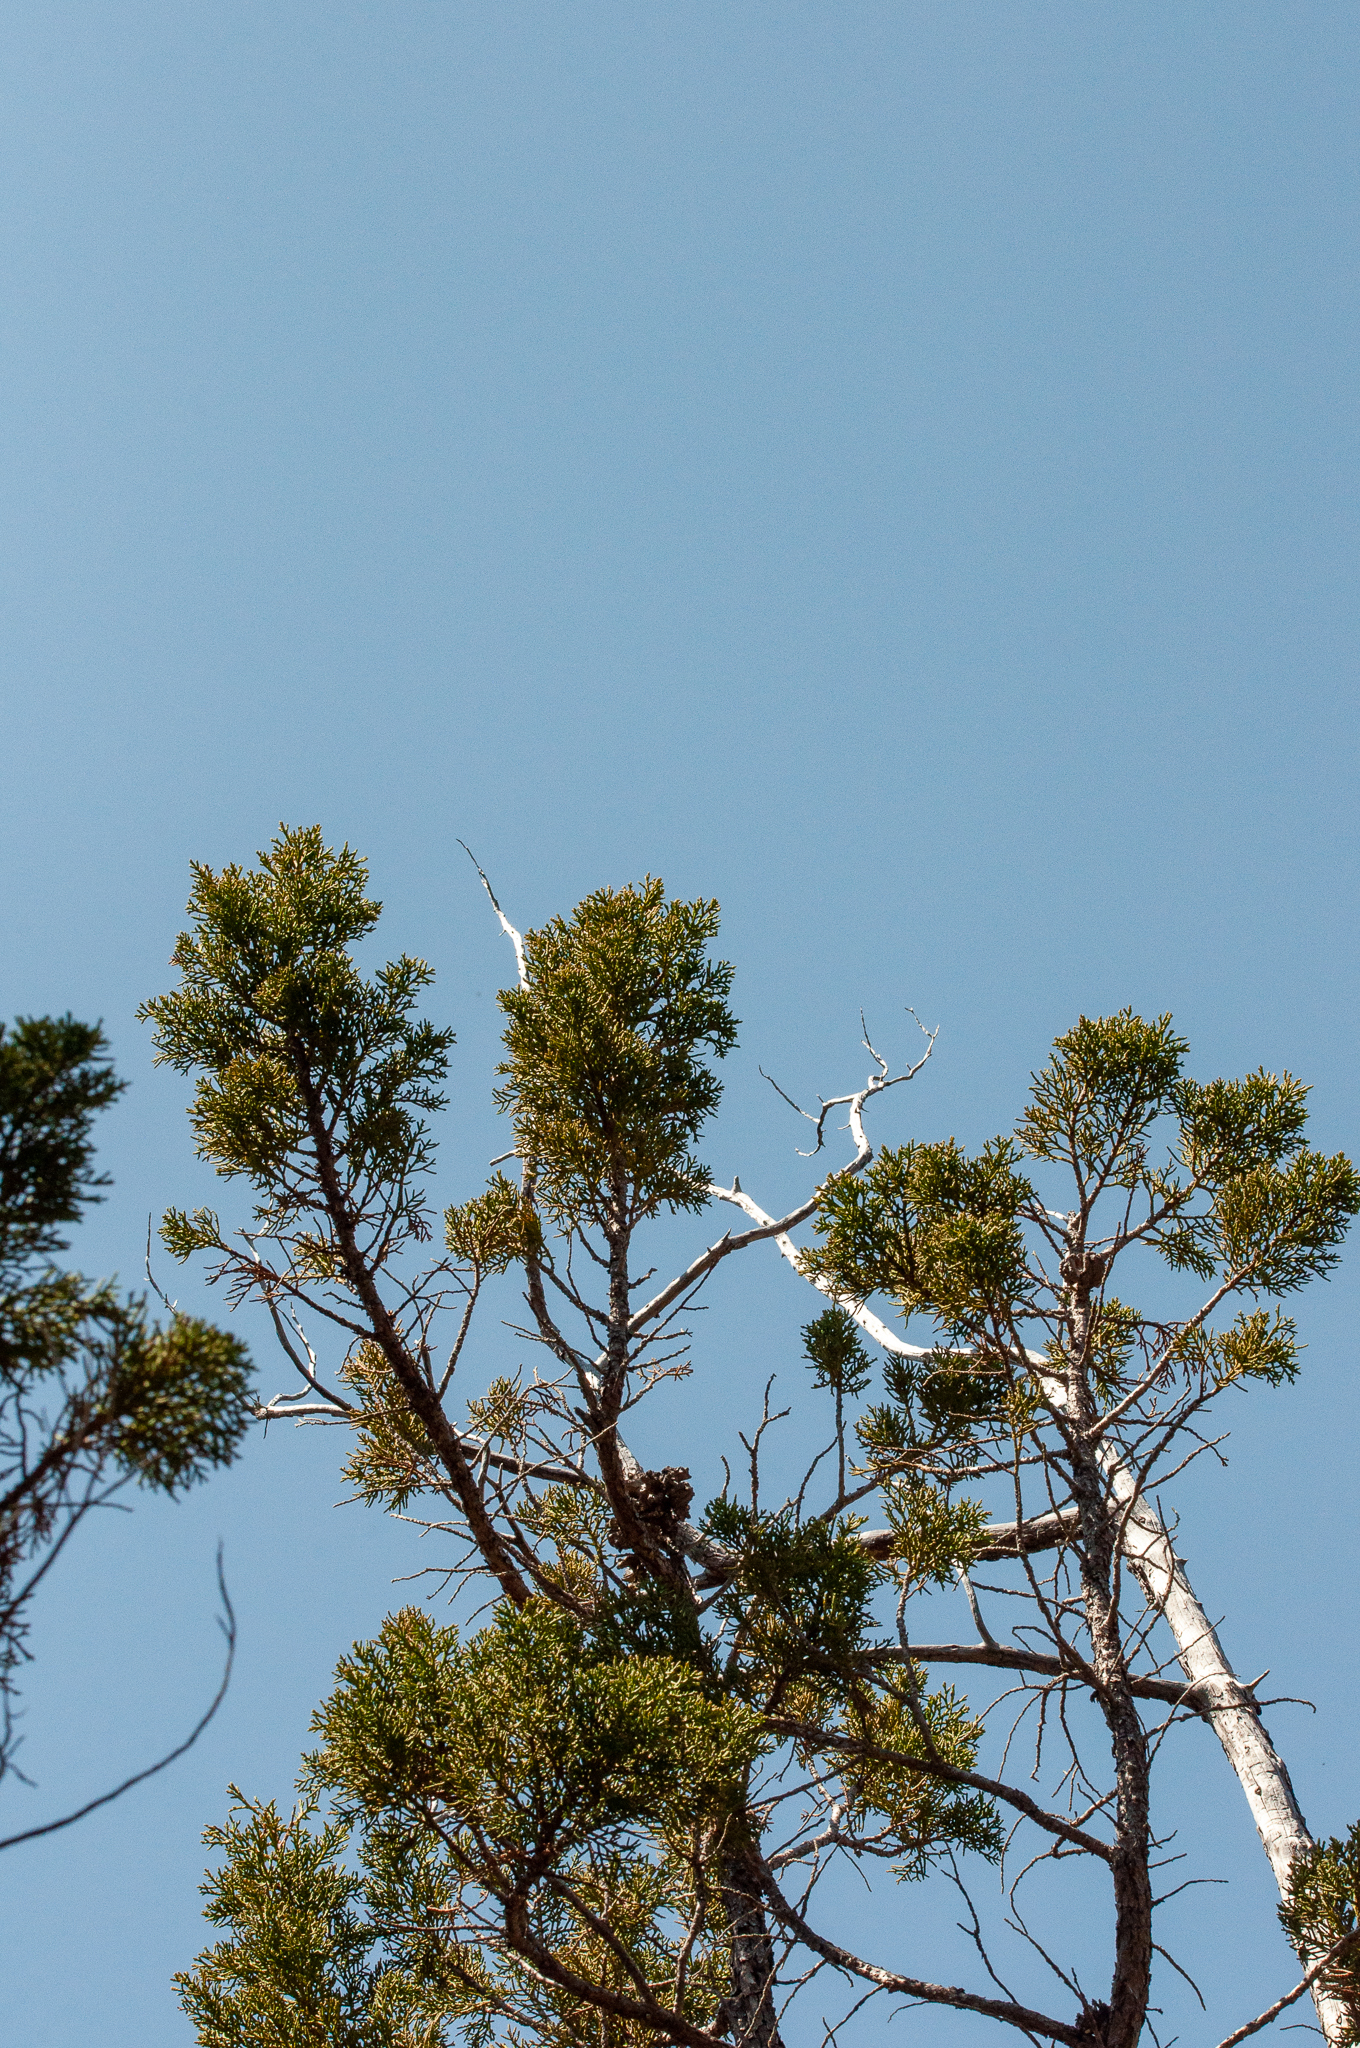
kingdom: Plantae
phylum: Tracheophyta
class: Pinopsida
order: Pinales
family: Cupressaceae
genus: Widdringtonia
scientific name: Widdringtonia nodiflora
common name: Cape cypress
